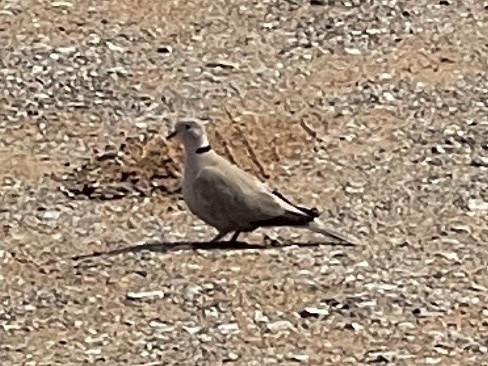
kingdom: Animalia
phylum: Chordata
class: Aves
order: Columbiformes
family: Columbidae
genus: Streptopelia
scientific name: Streptopelia decaocto
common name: Eurasian collared dove
